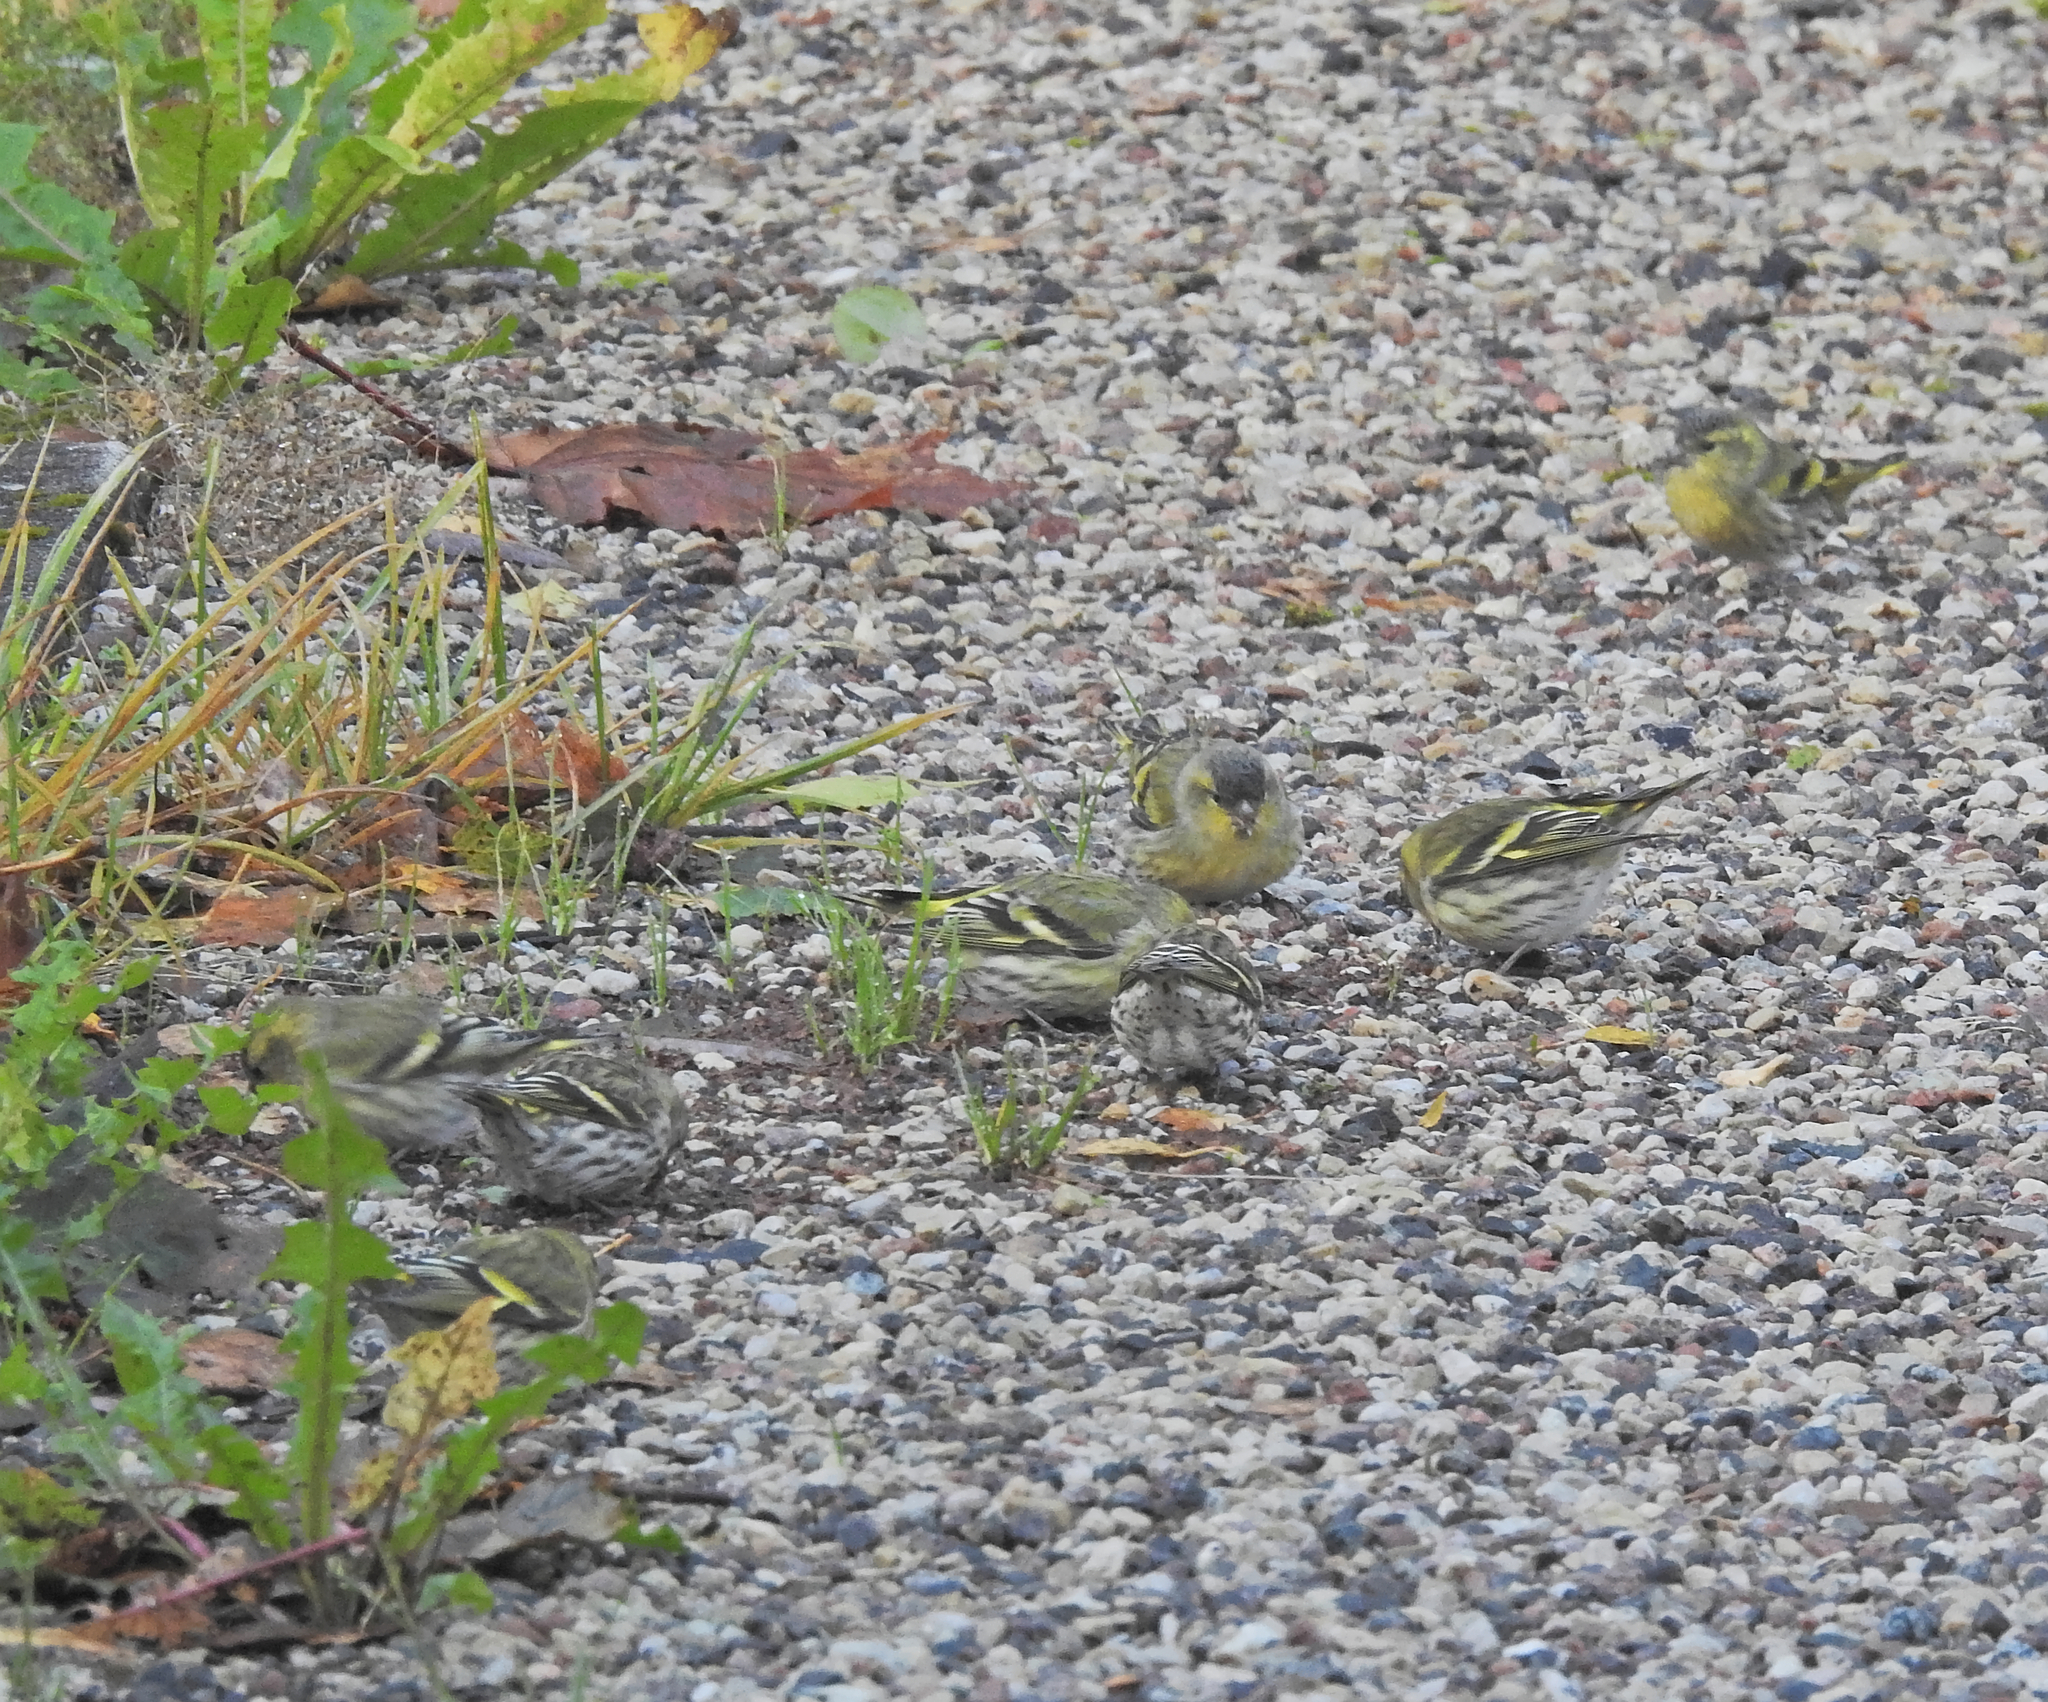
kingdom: Animalia
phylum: Chordata
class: Aves
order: Passeriformes
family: Fringillidae
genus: Spinus
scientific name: Spinus spinus
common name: Eurasian siskin
